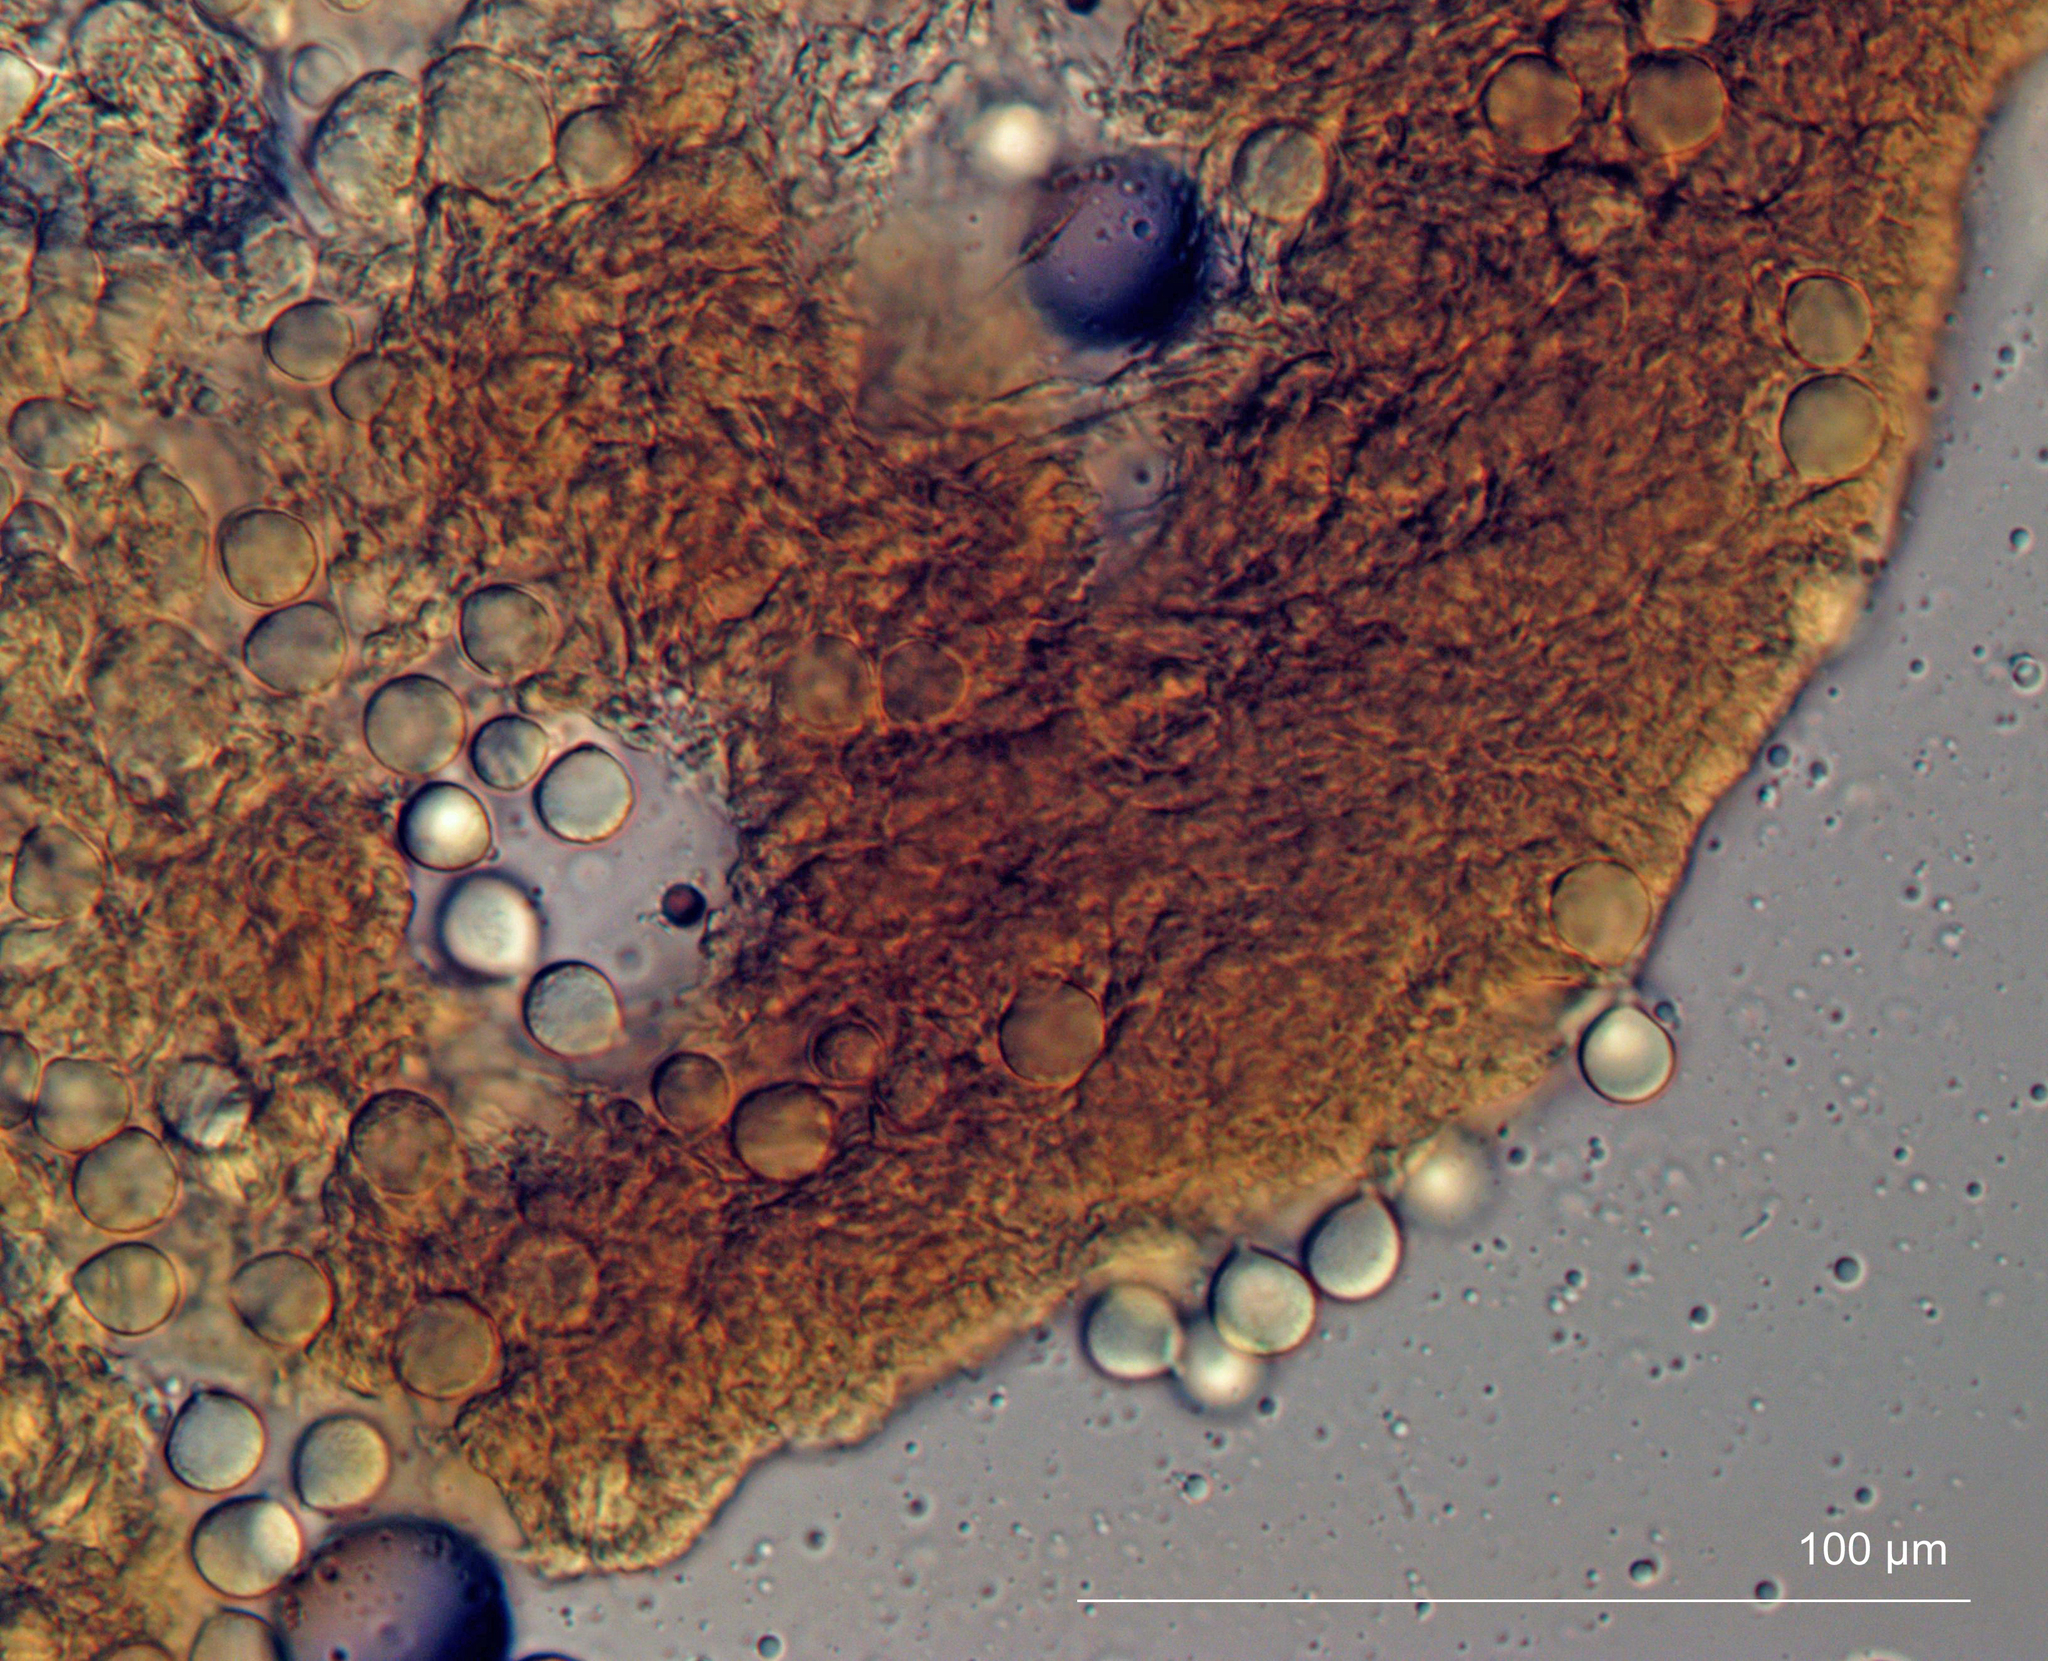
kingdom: Fungi
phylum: Basidiomycota
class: Agaricomycetes
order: Agaricales
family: Amanitaceae
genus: Amanita
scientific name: Amanita pekeoides
